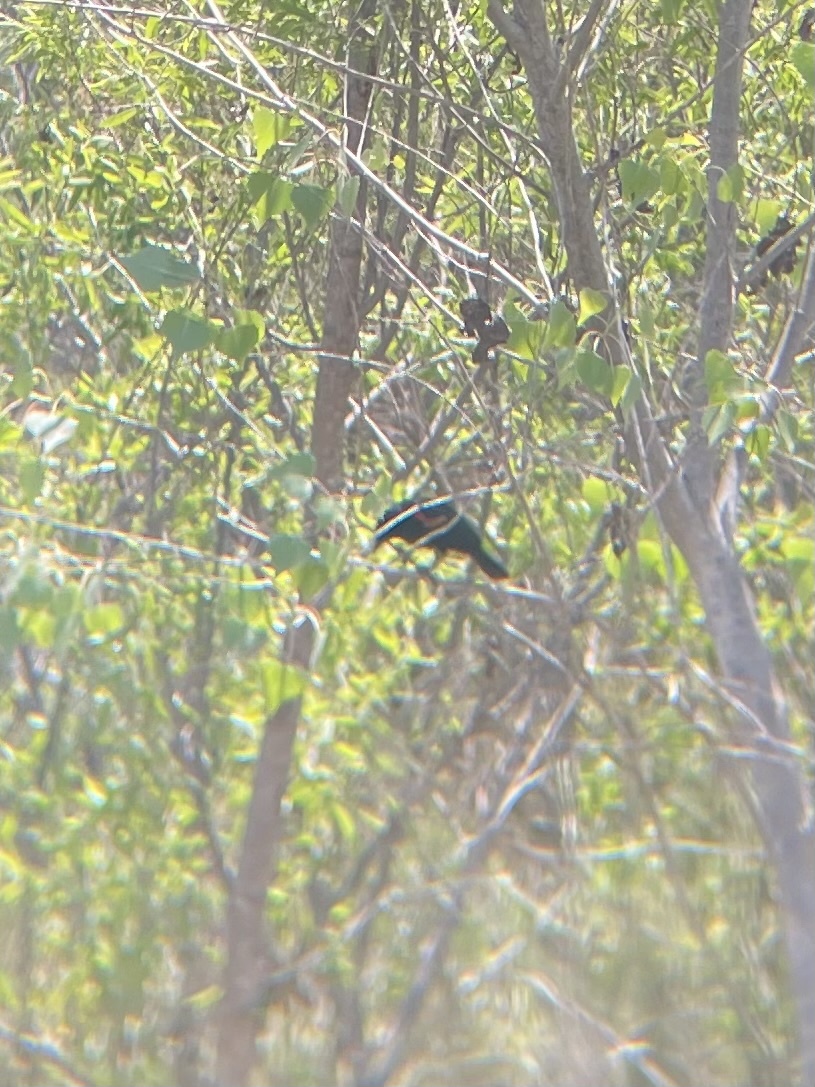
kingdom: Animalia
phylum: Chordata
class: Aves
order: Passeriformes
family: Icteridae
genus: Agelaius
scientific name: Agelaius phoeniceus
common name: Red-winged blackbird
